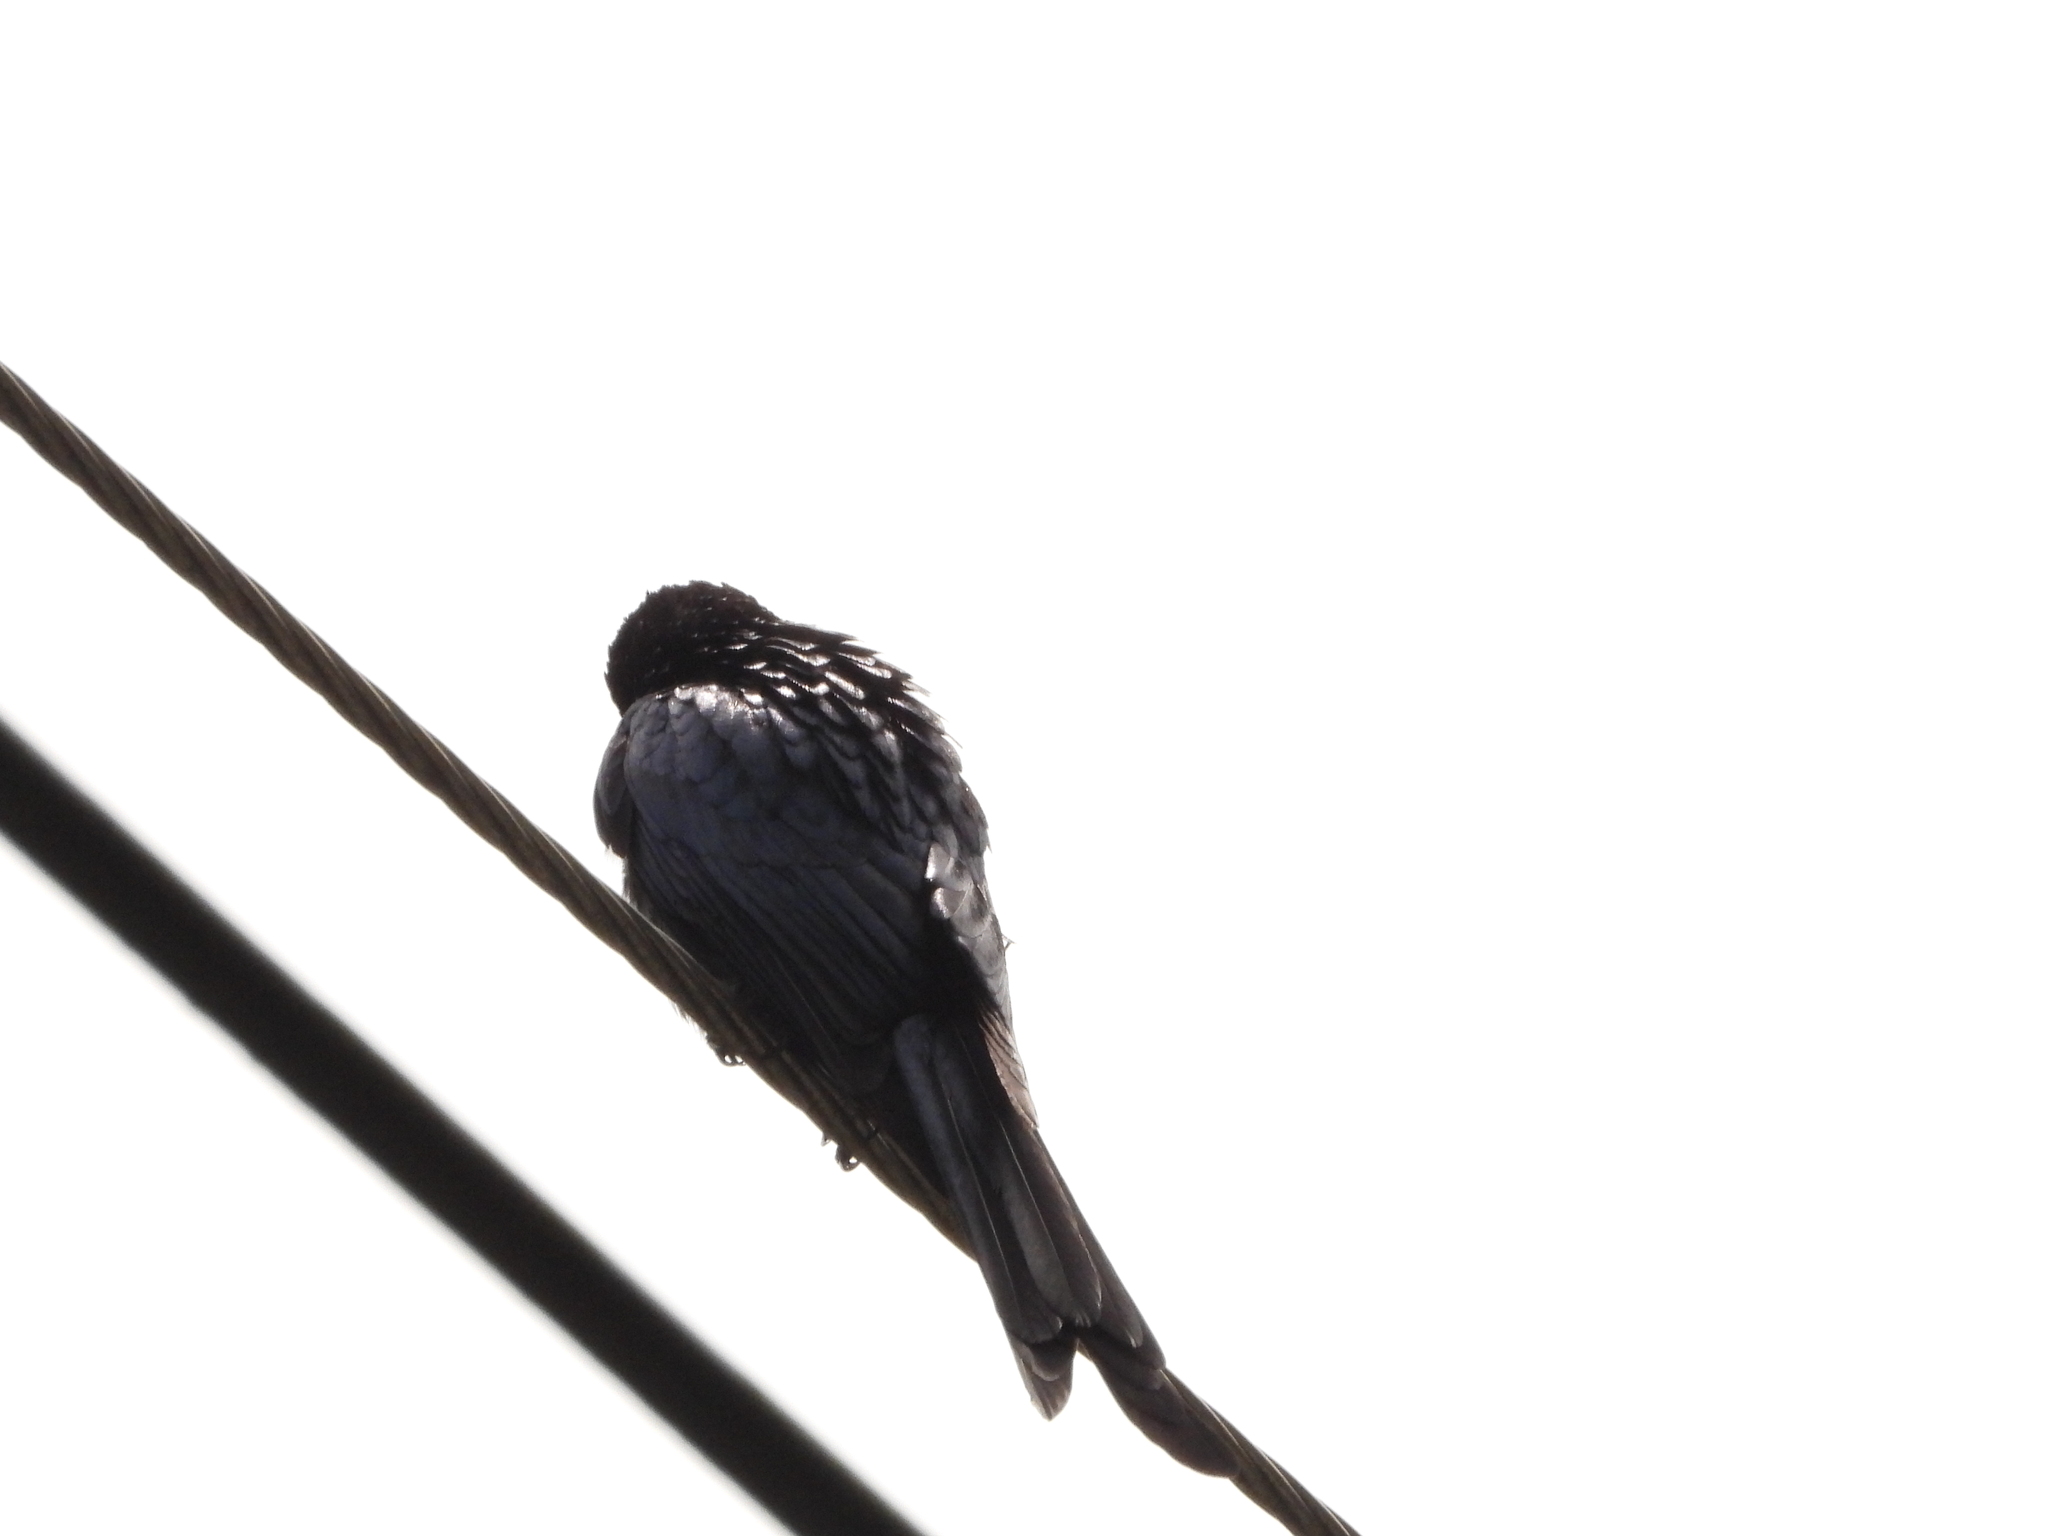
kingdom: Animalia
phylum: Chordata
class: Aves
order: Passeriformes
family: Dicruridae
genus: Dicrurus
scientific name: Dicrurus aeneus
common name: Bronzed drongo
